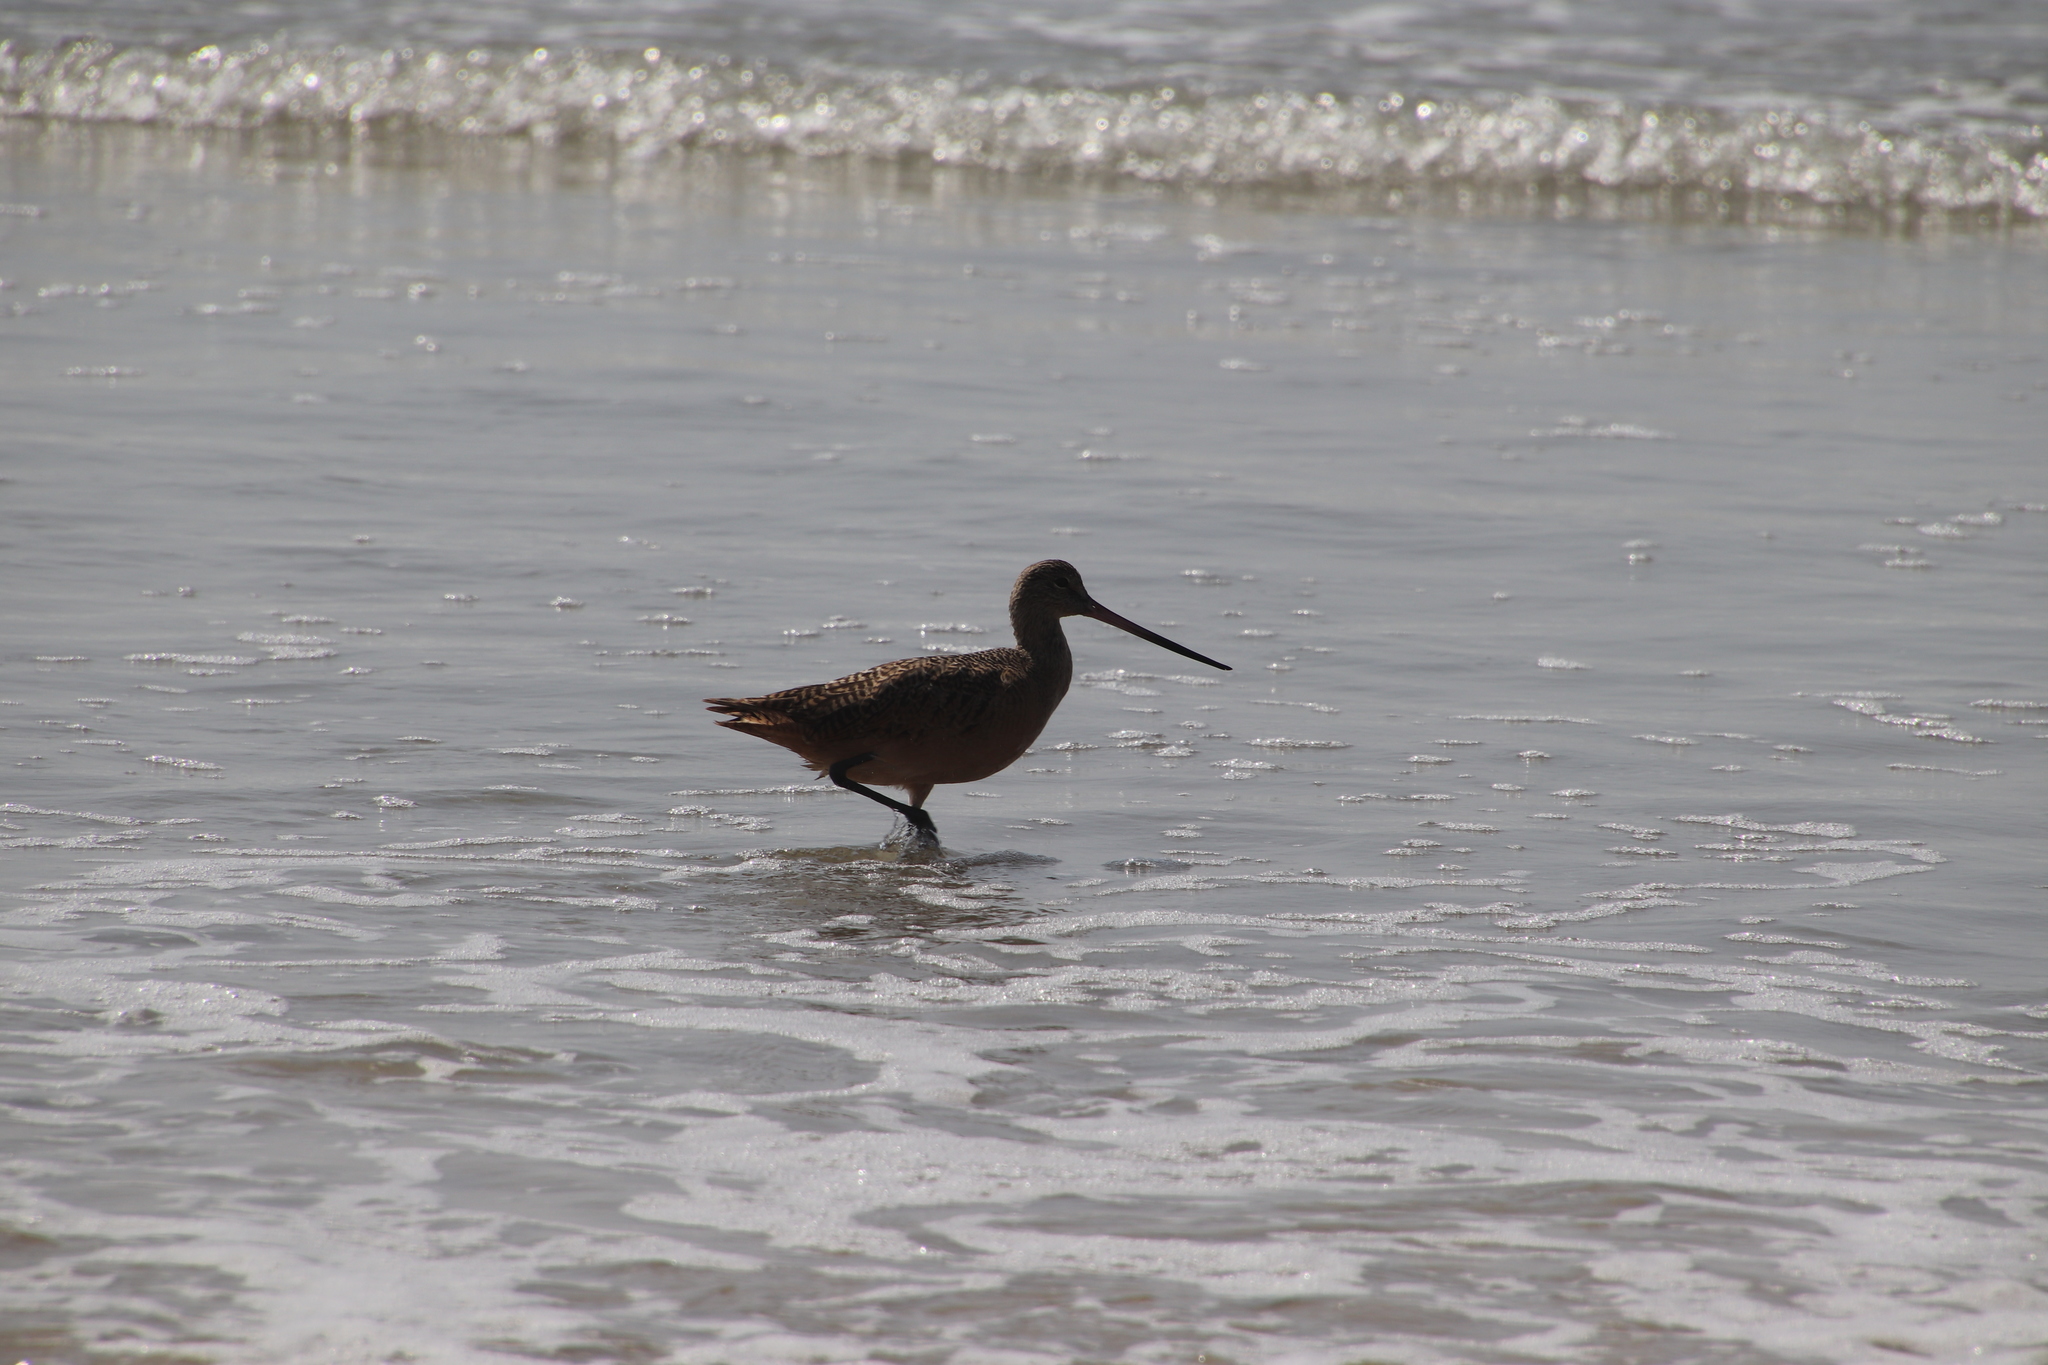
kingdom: Animalia
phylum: Chordata
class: Aves
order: Charadriiformes
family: Scolopacidae
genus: Limosa
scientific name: Limosa fedoa
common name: Marbled godwit
